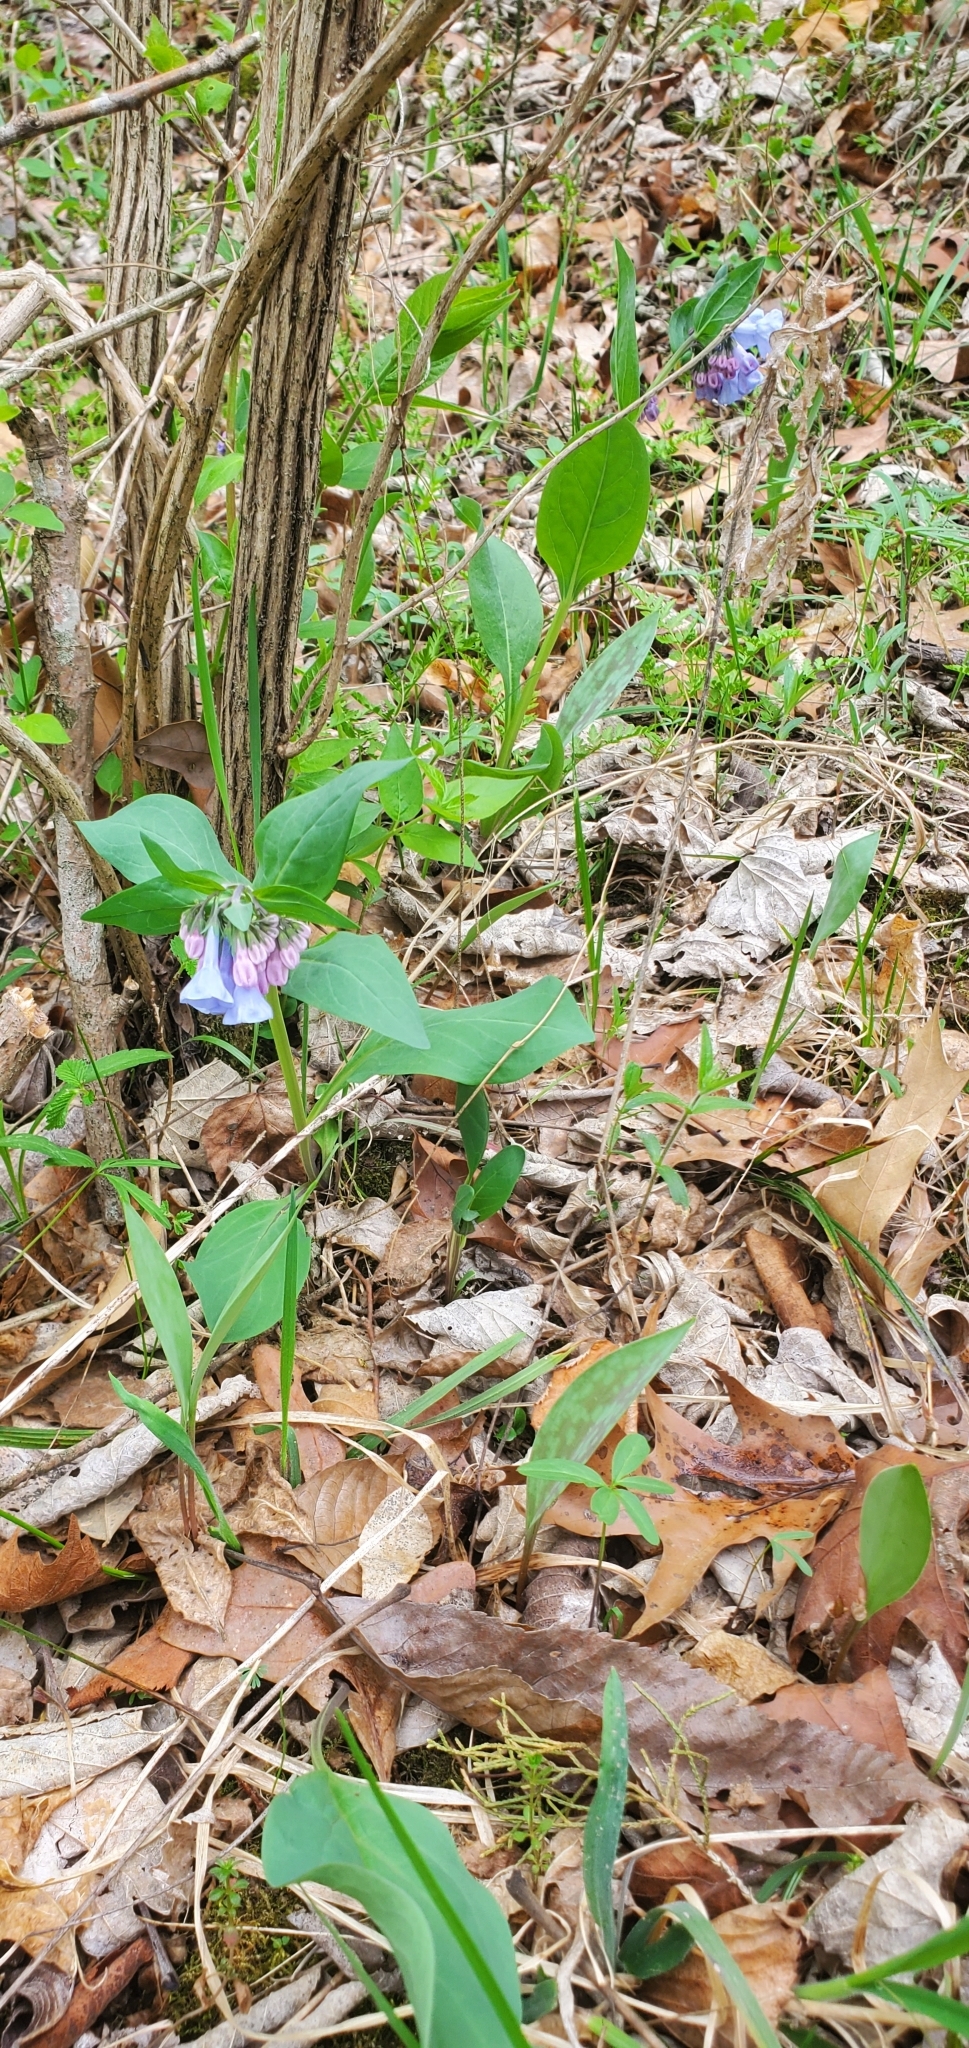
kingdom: Plantae
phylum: Tracheophyta
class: Magnoliopsida
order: Boraginales
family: Boraginaceae
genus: Mertensia
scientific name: Mertensia virginica
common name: Virginia bluebells
